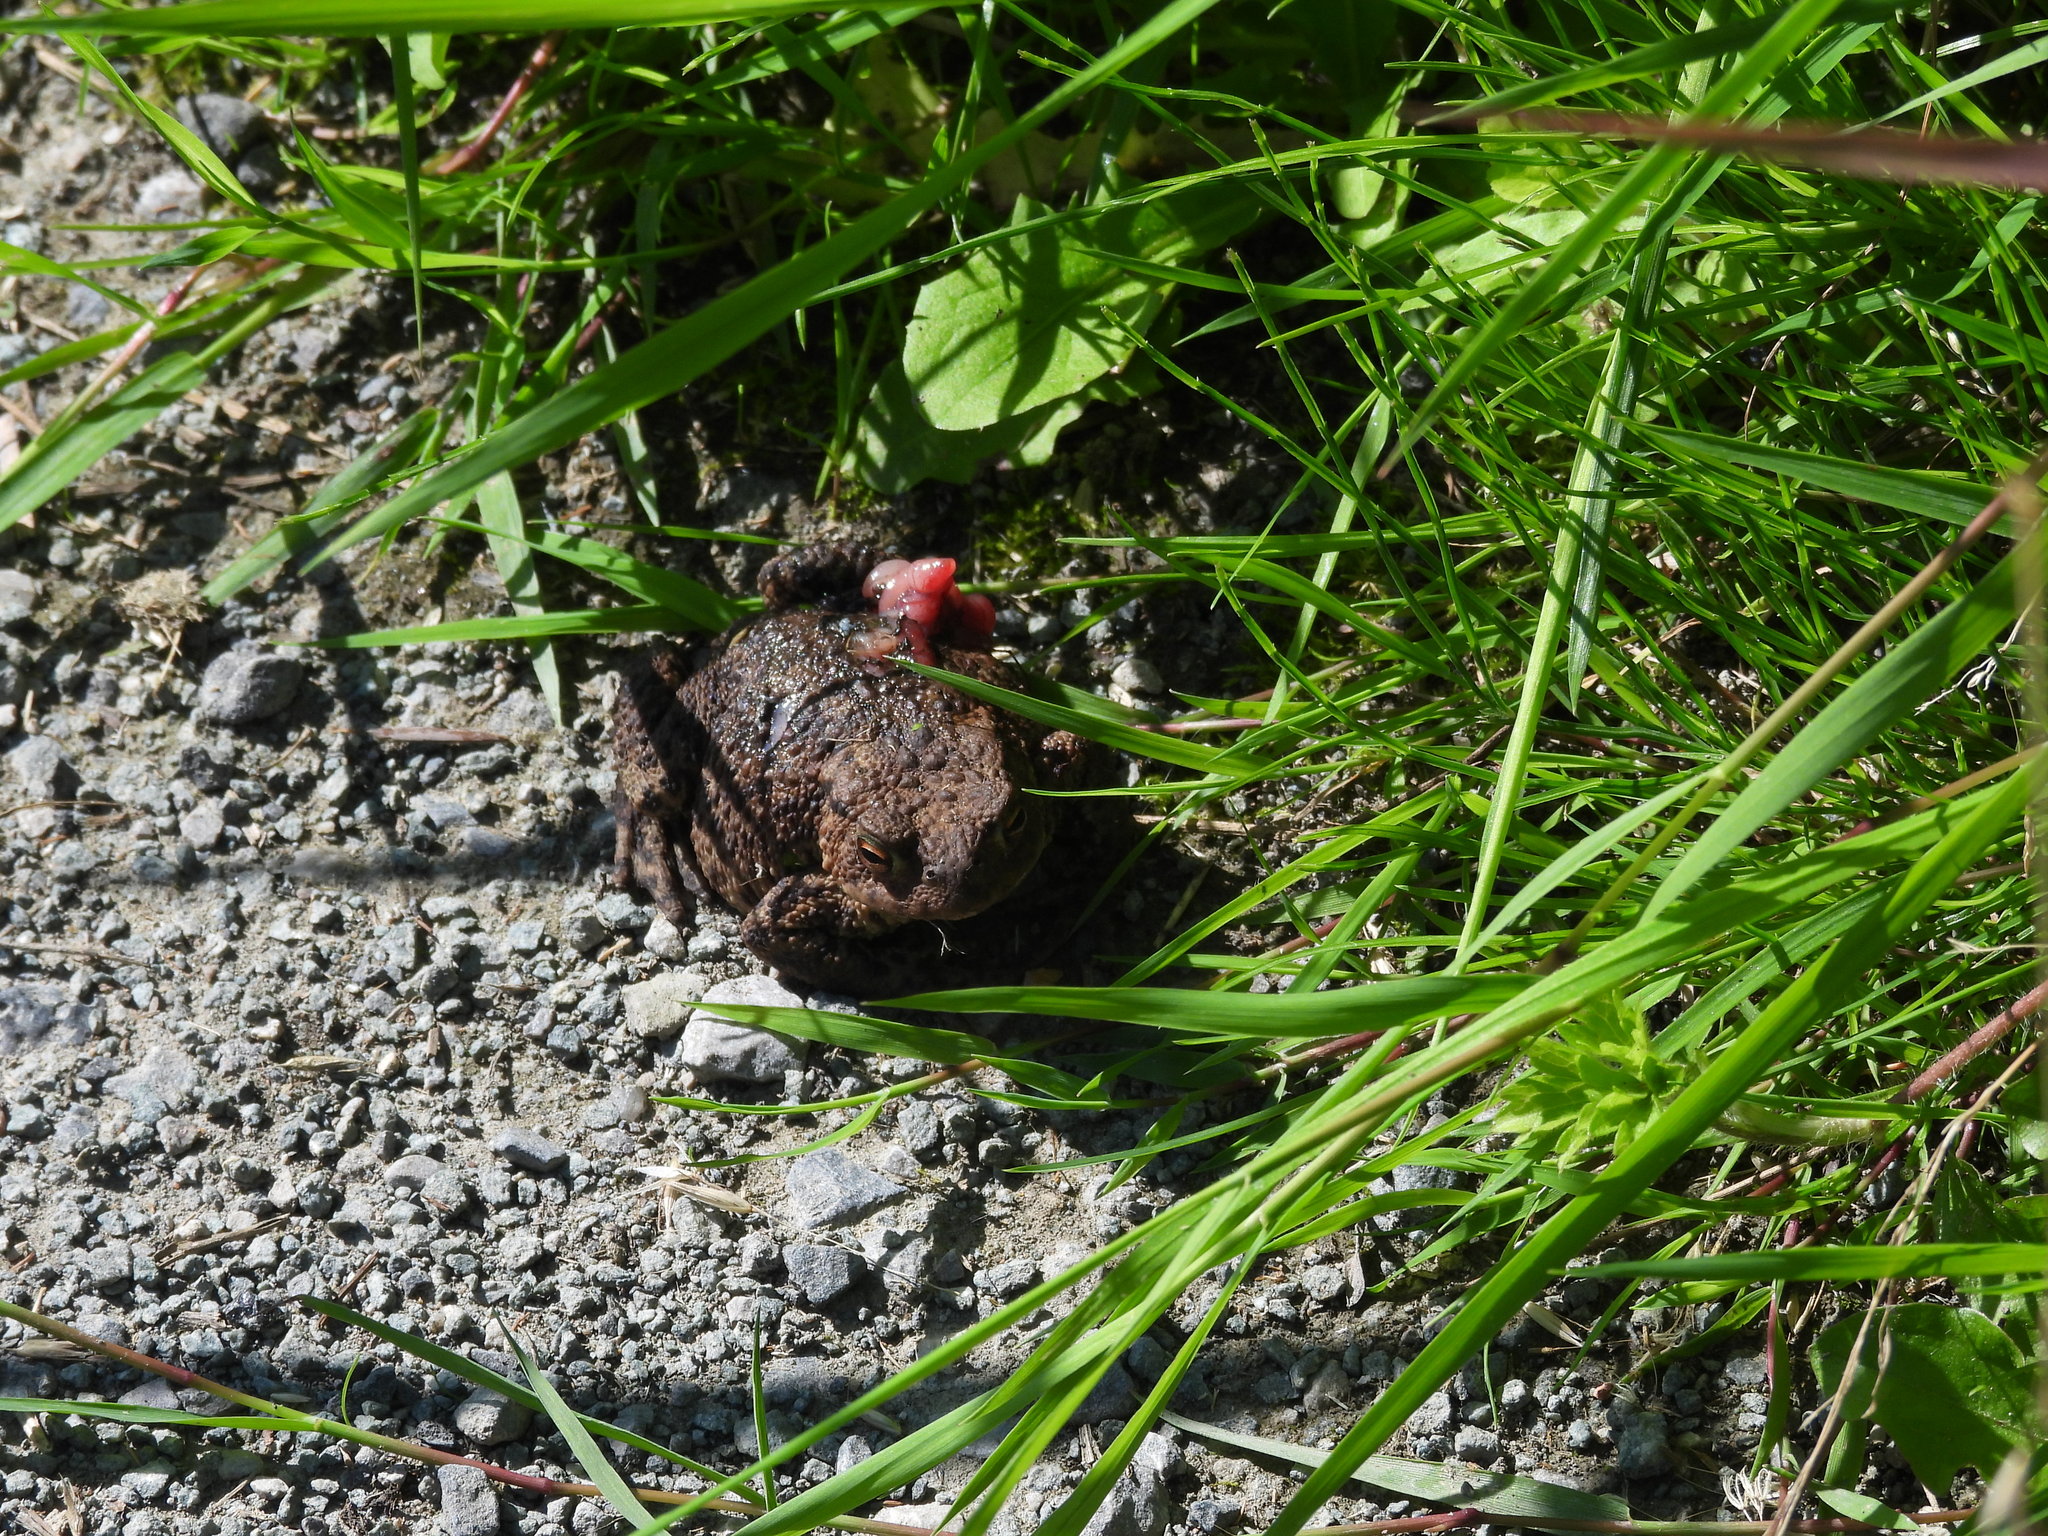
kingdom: Animalia
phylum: Chordata
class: Amphibia
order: Anura
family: Bufonidae
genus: Bufo
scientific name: Bufo bufo
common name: Common toad
